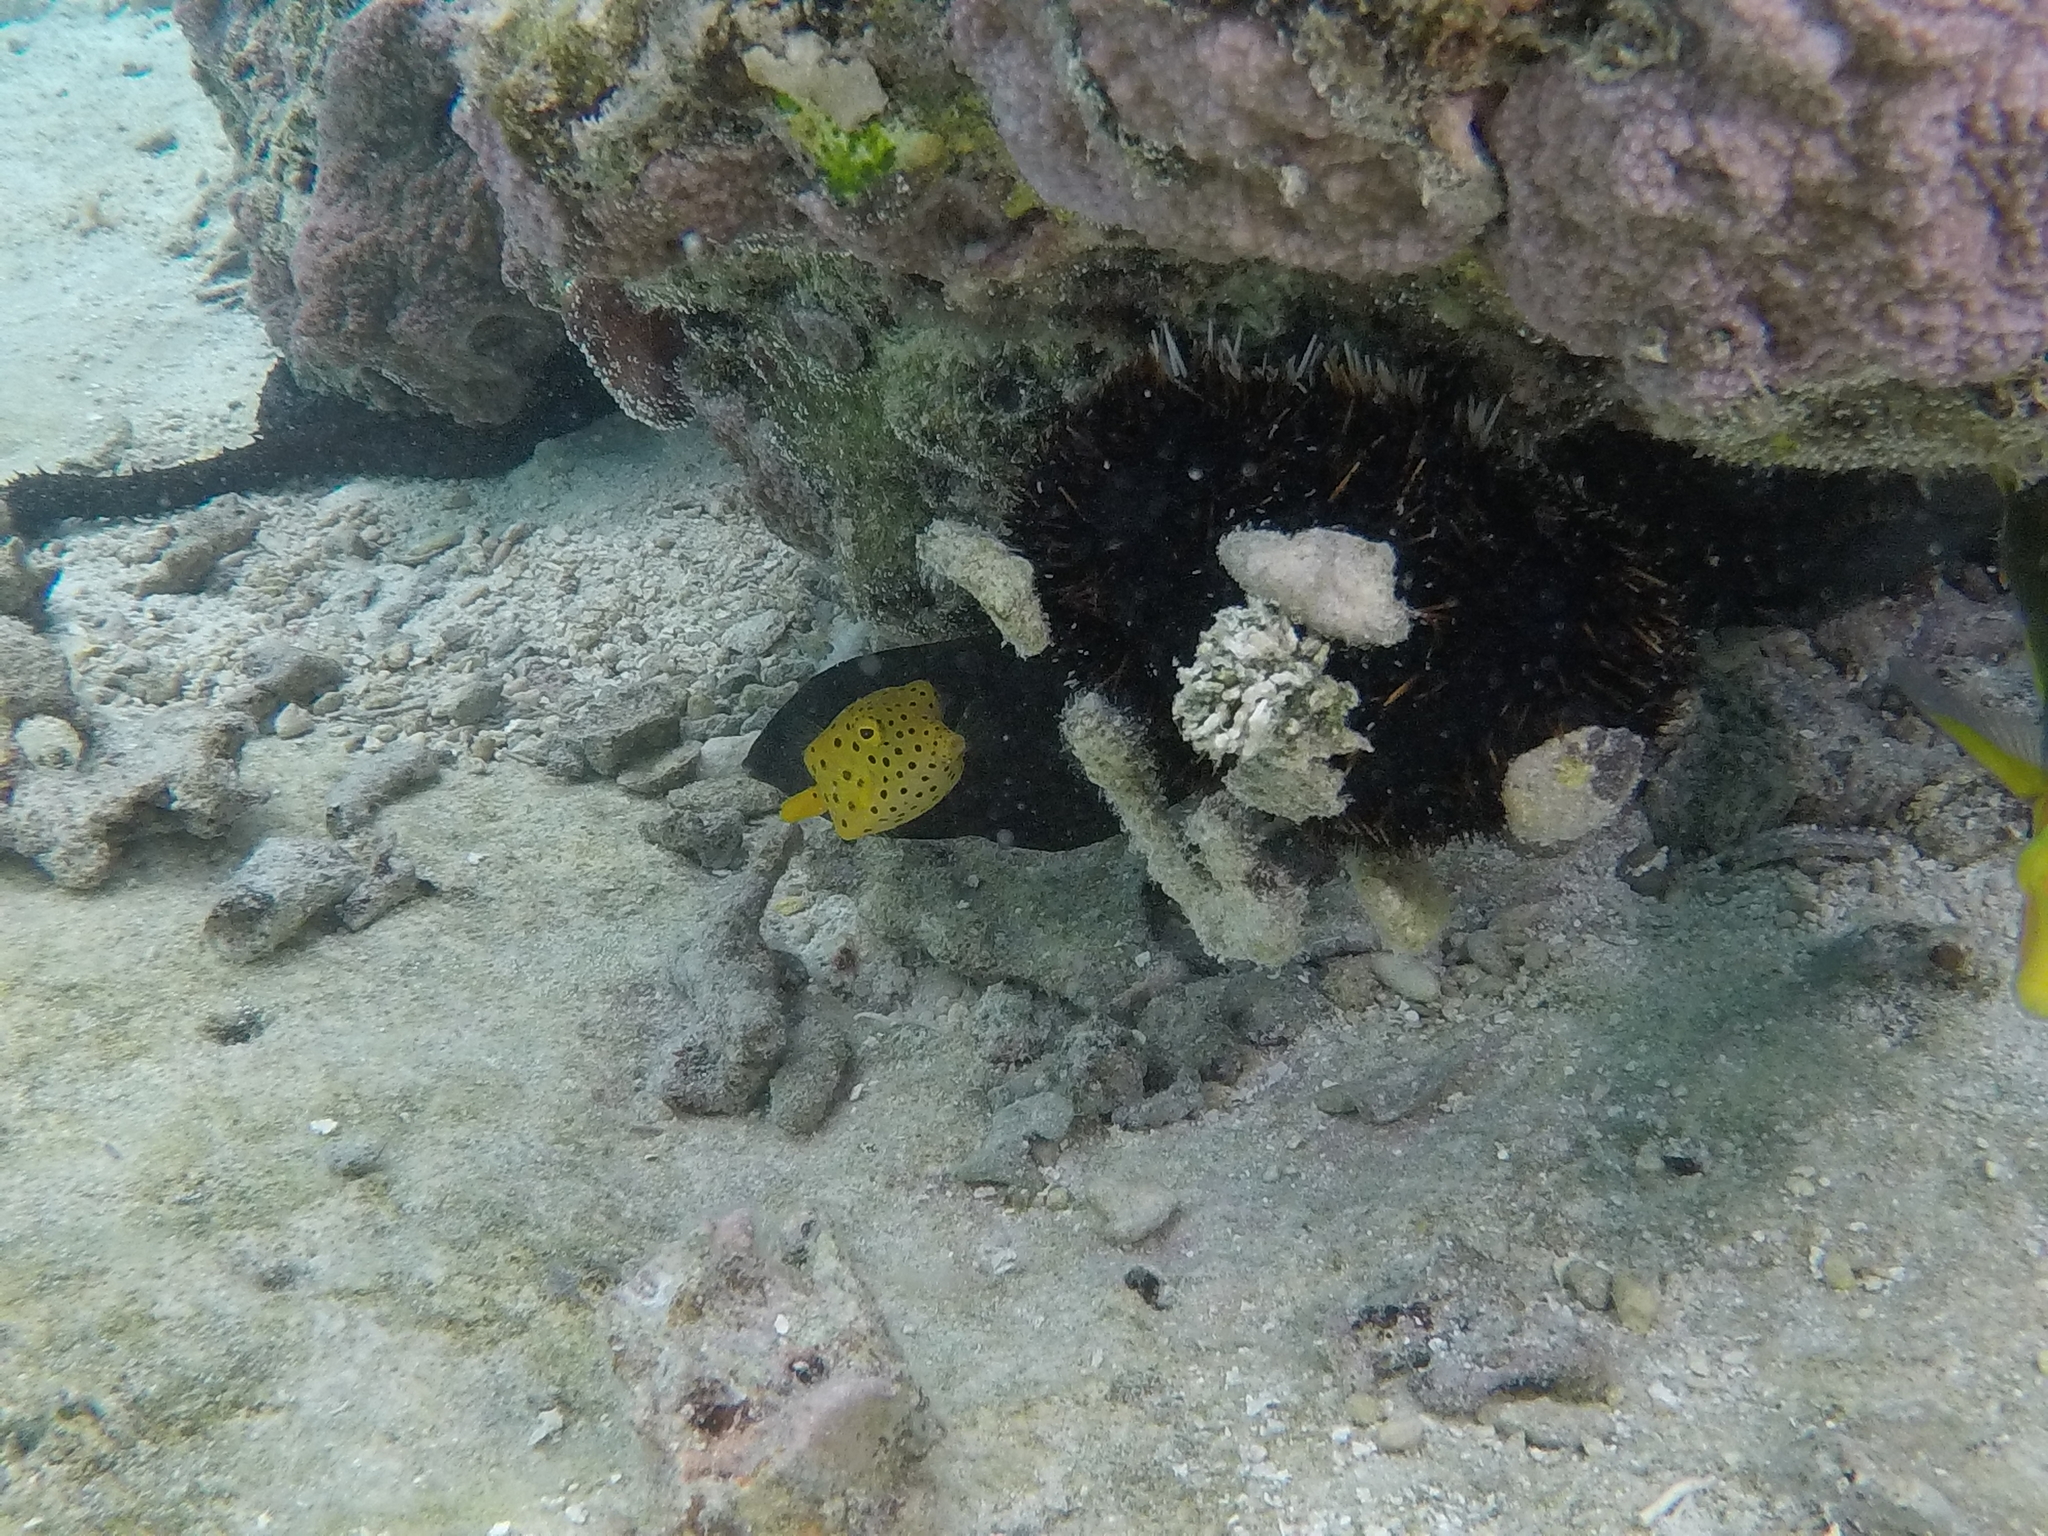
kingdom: Animalia
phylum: Chordata
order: Tetraodontiformes
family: Ostraciidae
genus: Ostracion
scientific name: Ostracion cubicus
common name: Cube trunkfish
